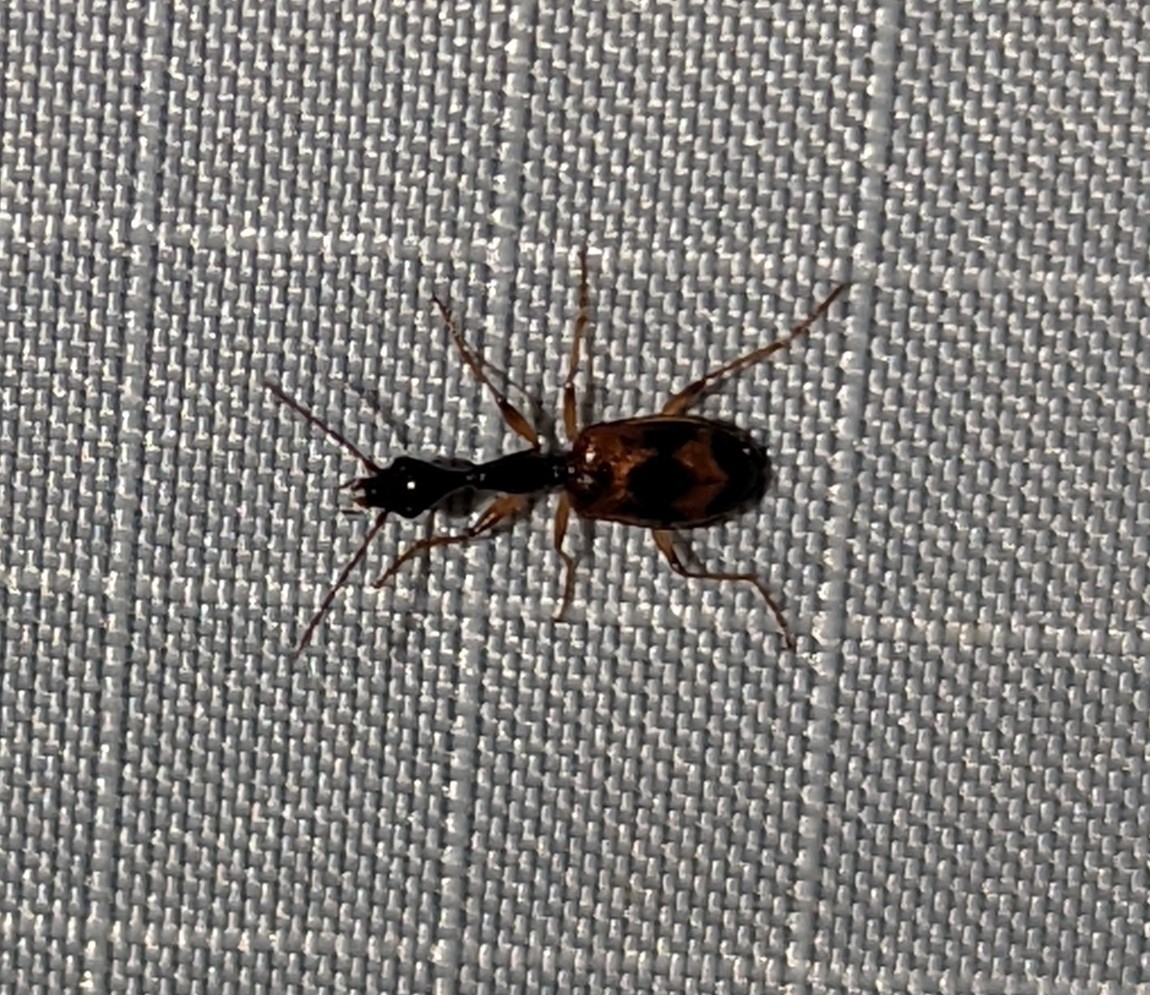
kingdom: Animalia
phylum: Arthropoda
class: Insecta
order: Coleoptera
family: Carabidae
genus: Colliuris
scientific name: Colliuris pensylvanica
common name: Long-necked ground beetle
